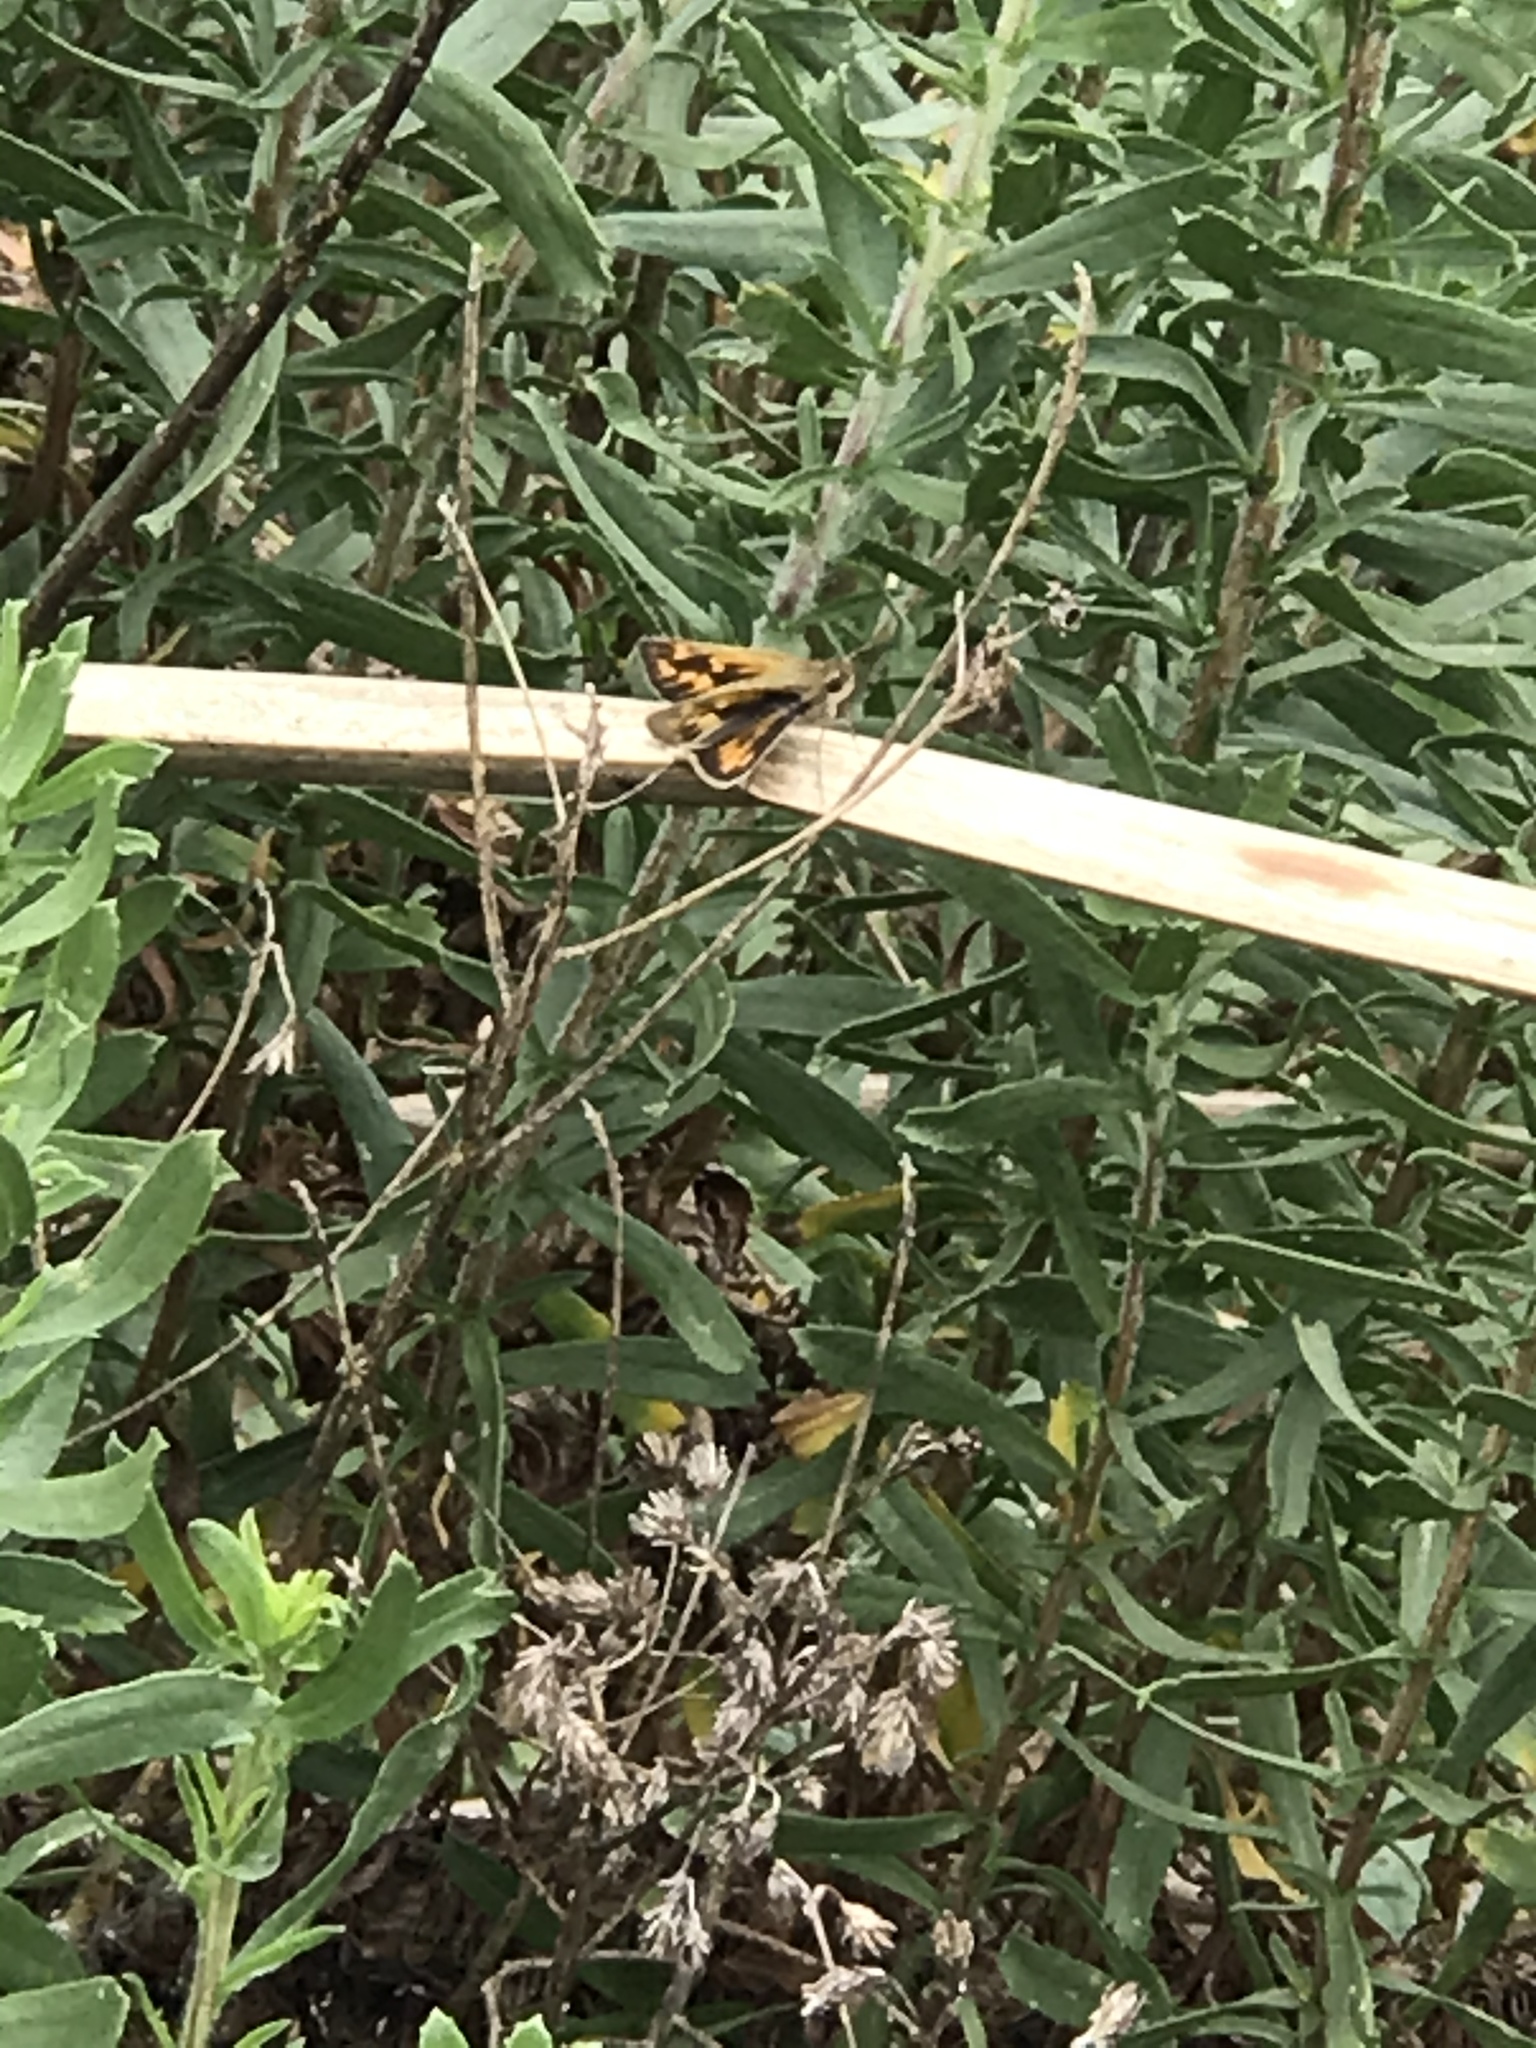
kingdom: Animalia
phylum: Arthropoda
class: Insecta
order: Lepidoptera
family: Hesperiidae
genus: Hylephila
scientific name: Hylephila phyleus
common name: Fiery skipper
